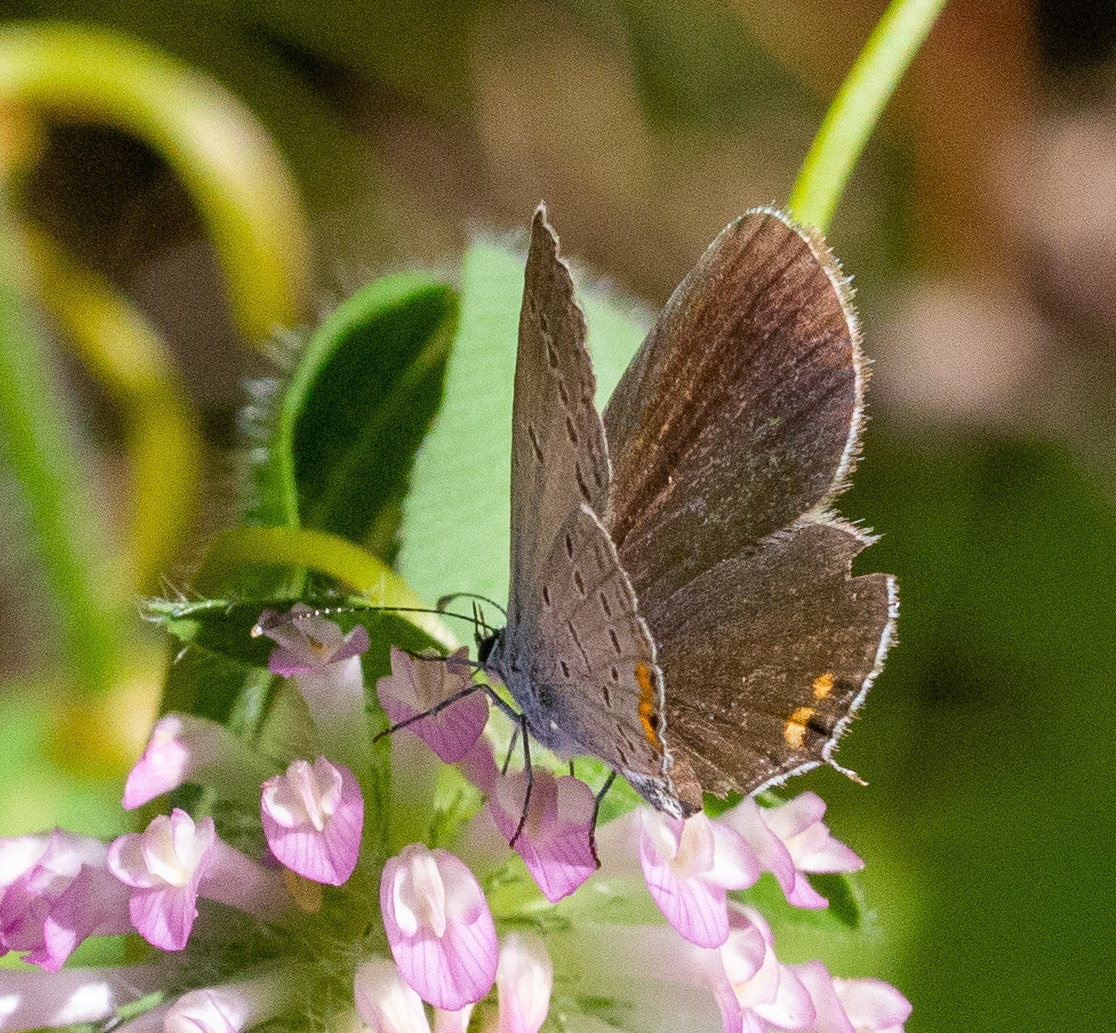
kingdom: Animalia
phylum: Arthropoda
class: Insecta
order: Lepidoptera
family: Lycaenidae
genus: Elkalyce
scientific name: Elkalyce comyntas
